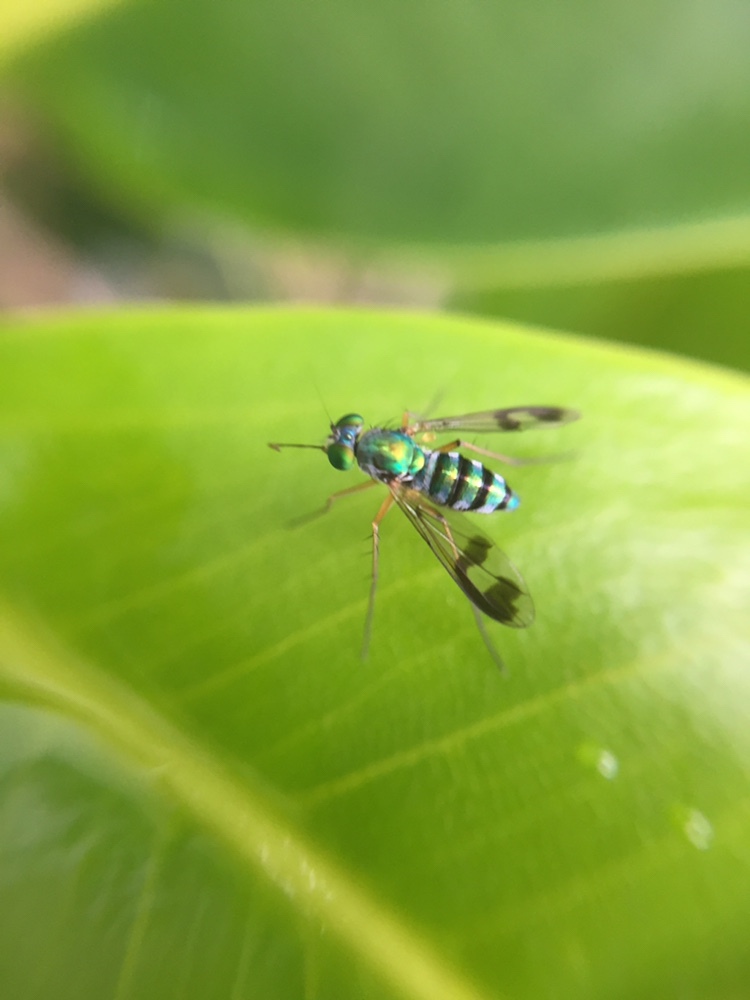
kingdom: Animalia
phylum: Arthropoda
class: Insecta
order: Diptera
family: Dolichopodidae
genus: Austrosciapus
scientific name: Austrosciapus proximus
